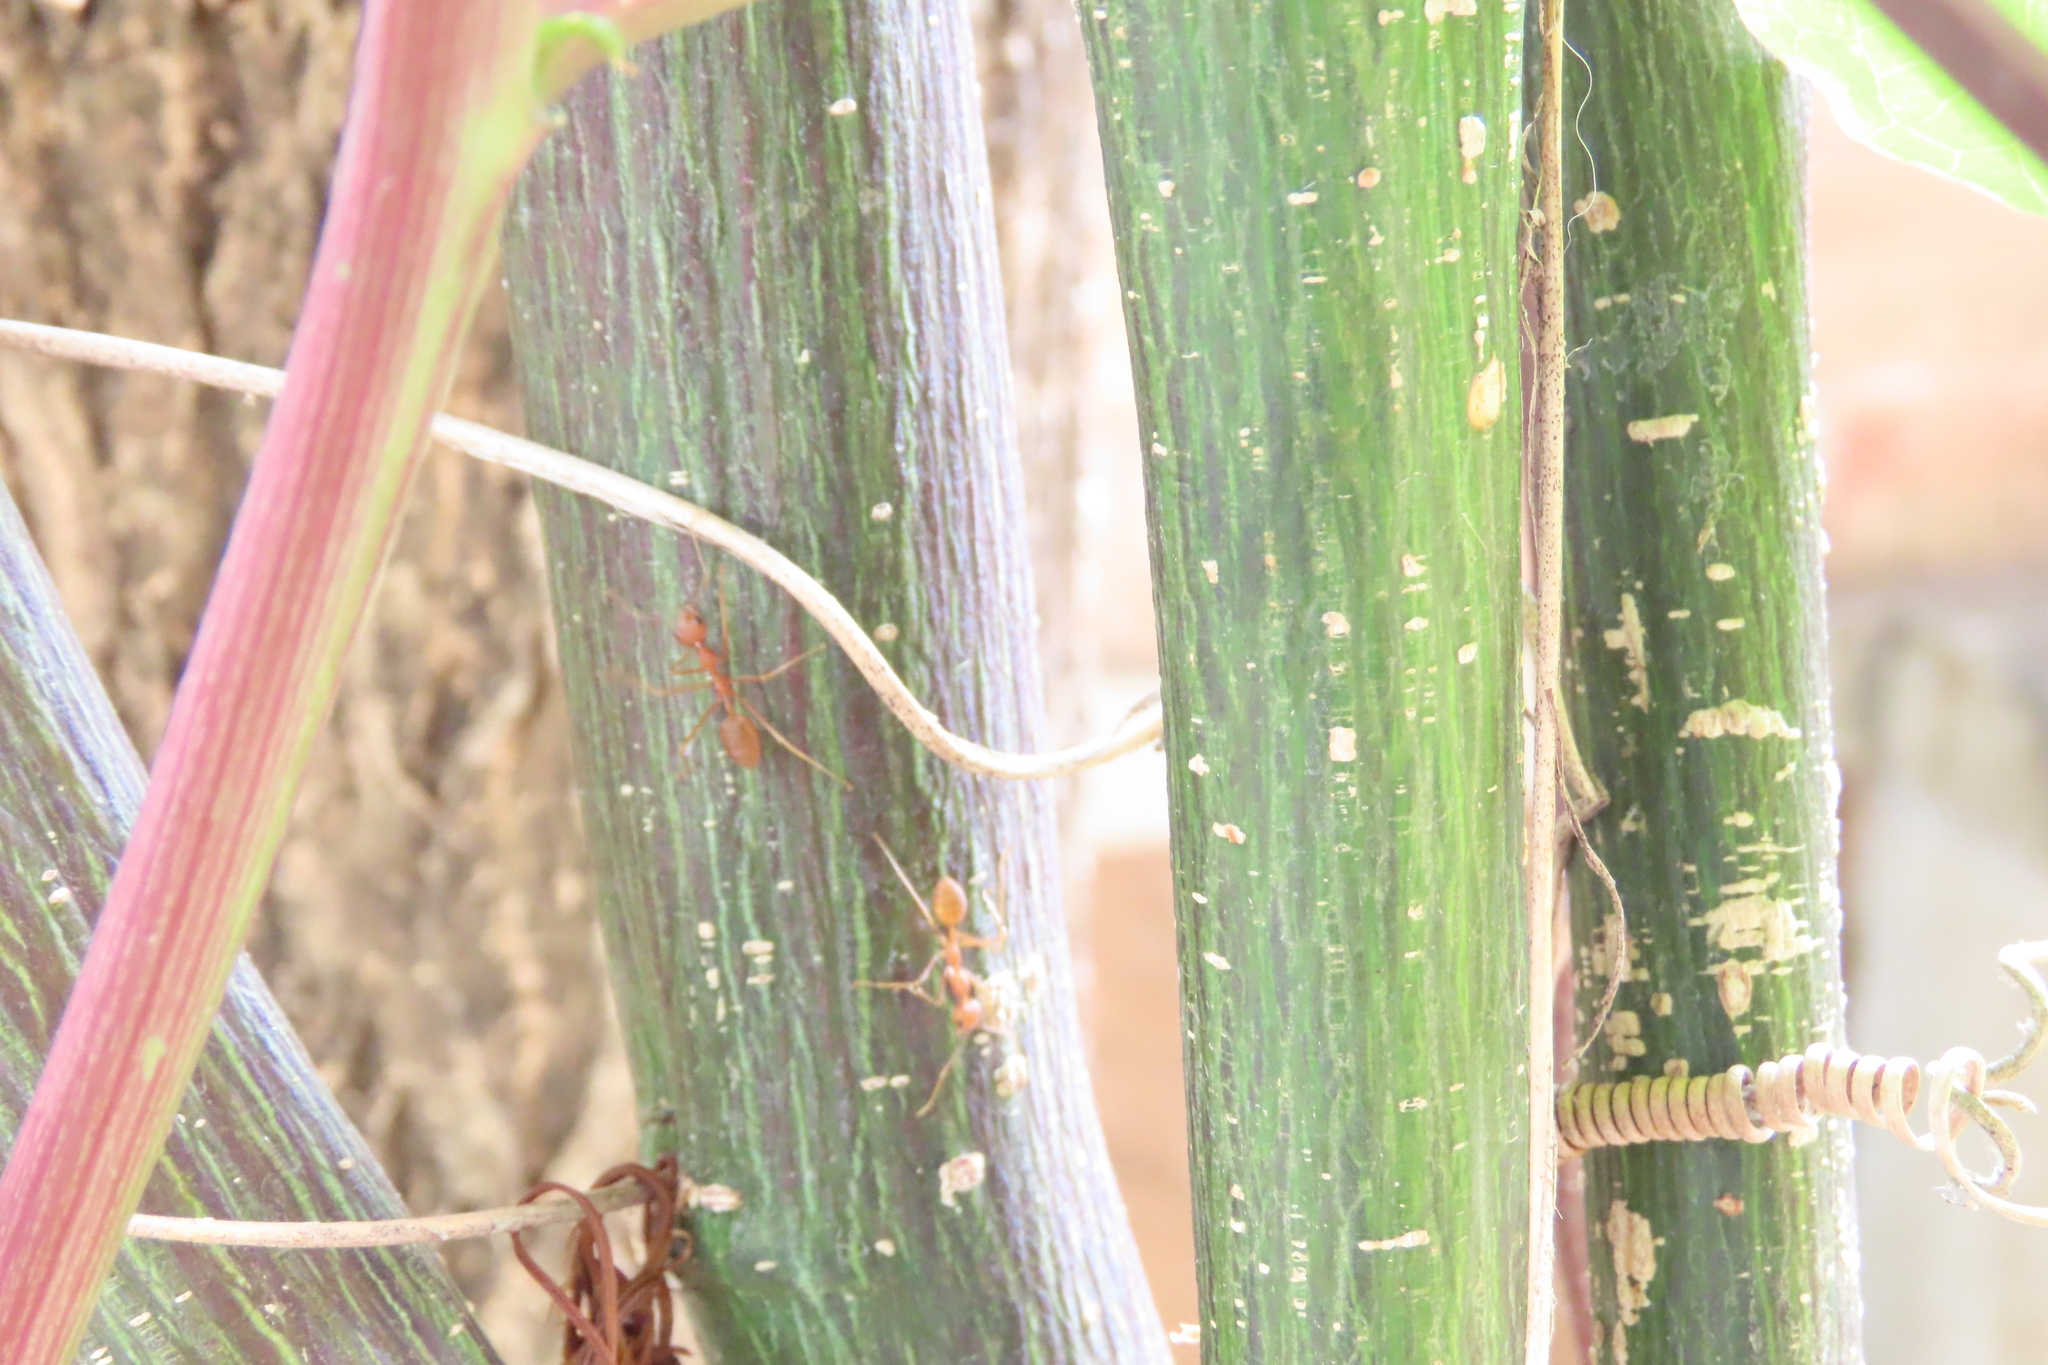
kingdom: Animalia
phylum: Arthropoda
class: Insecta
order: Hymenoptera
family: Formicidae
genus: Oecophylla
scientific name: Oecophylla smaragdina
